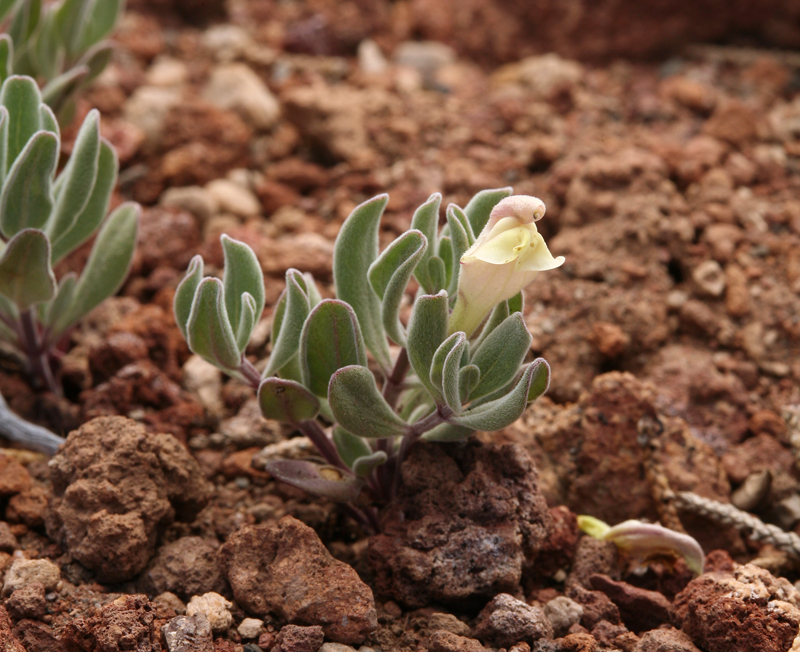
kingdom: Plantae
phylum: Tracheophyta
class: Magnoliopsida
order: Lamiales
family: Lamiaceae
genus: Scutellaria
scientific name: Scutellaria nana
